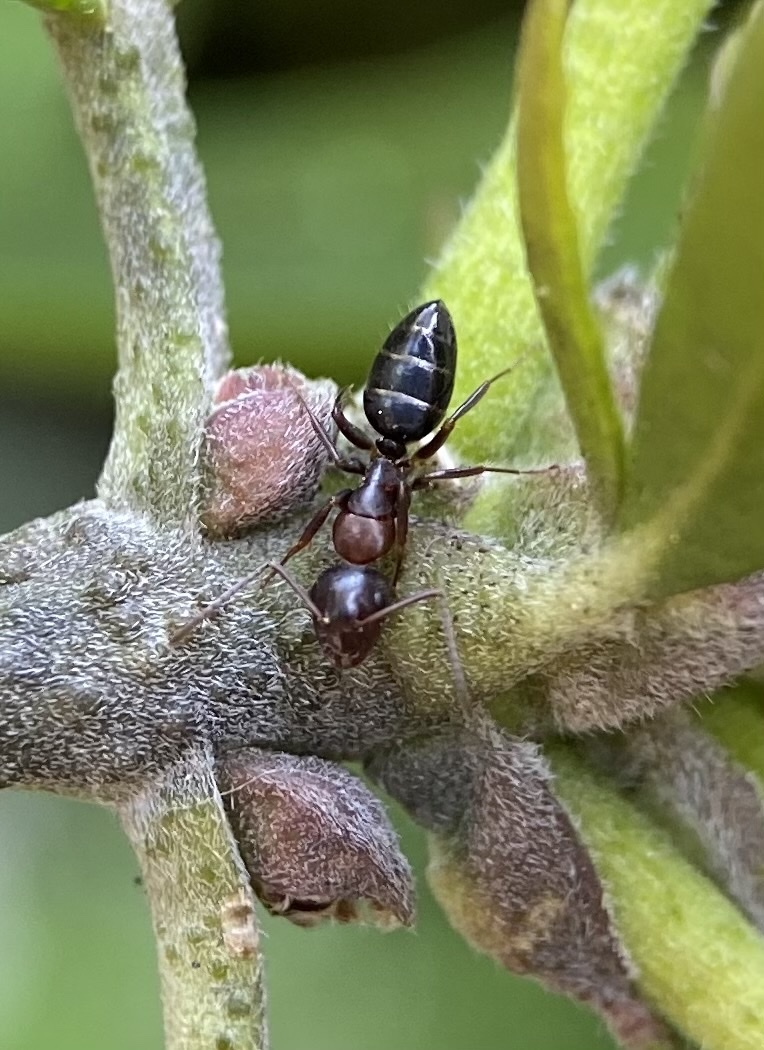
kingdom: Animalia
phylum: Arthropoda
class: Insecta
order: Hymenoptera
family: Formicidae
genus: Camponotus
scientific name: Camponotus hyatti
